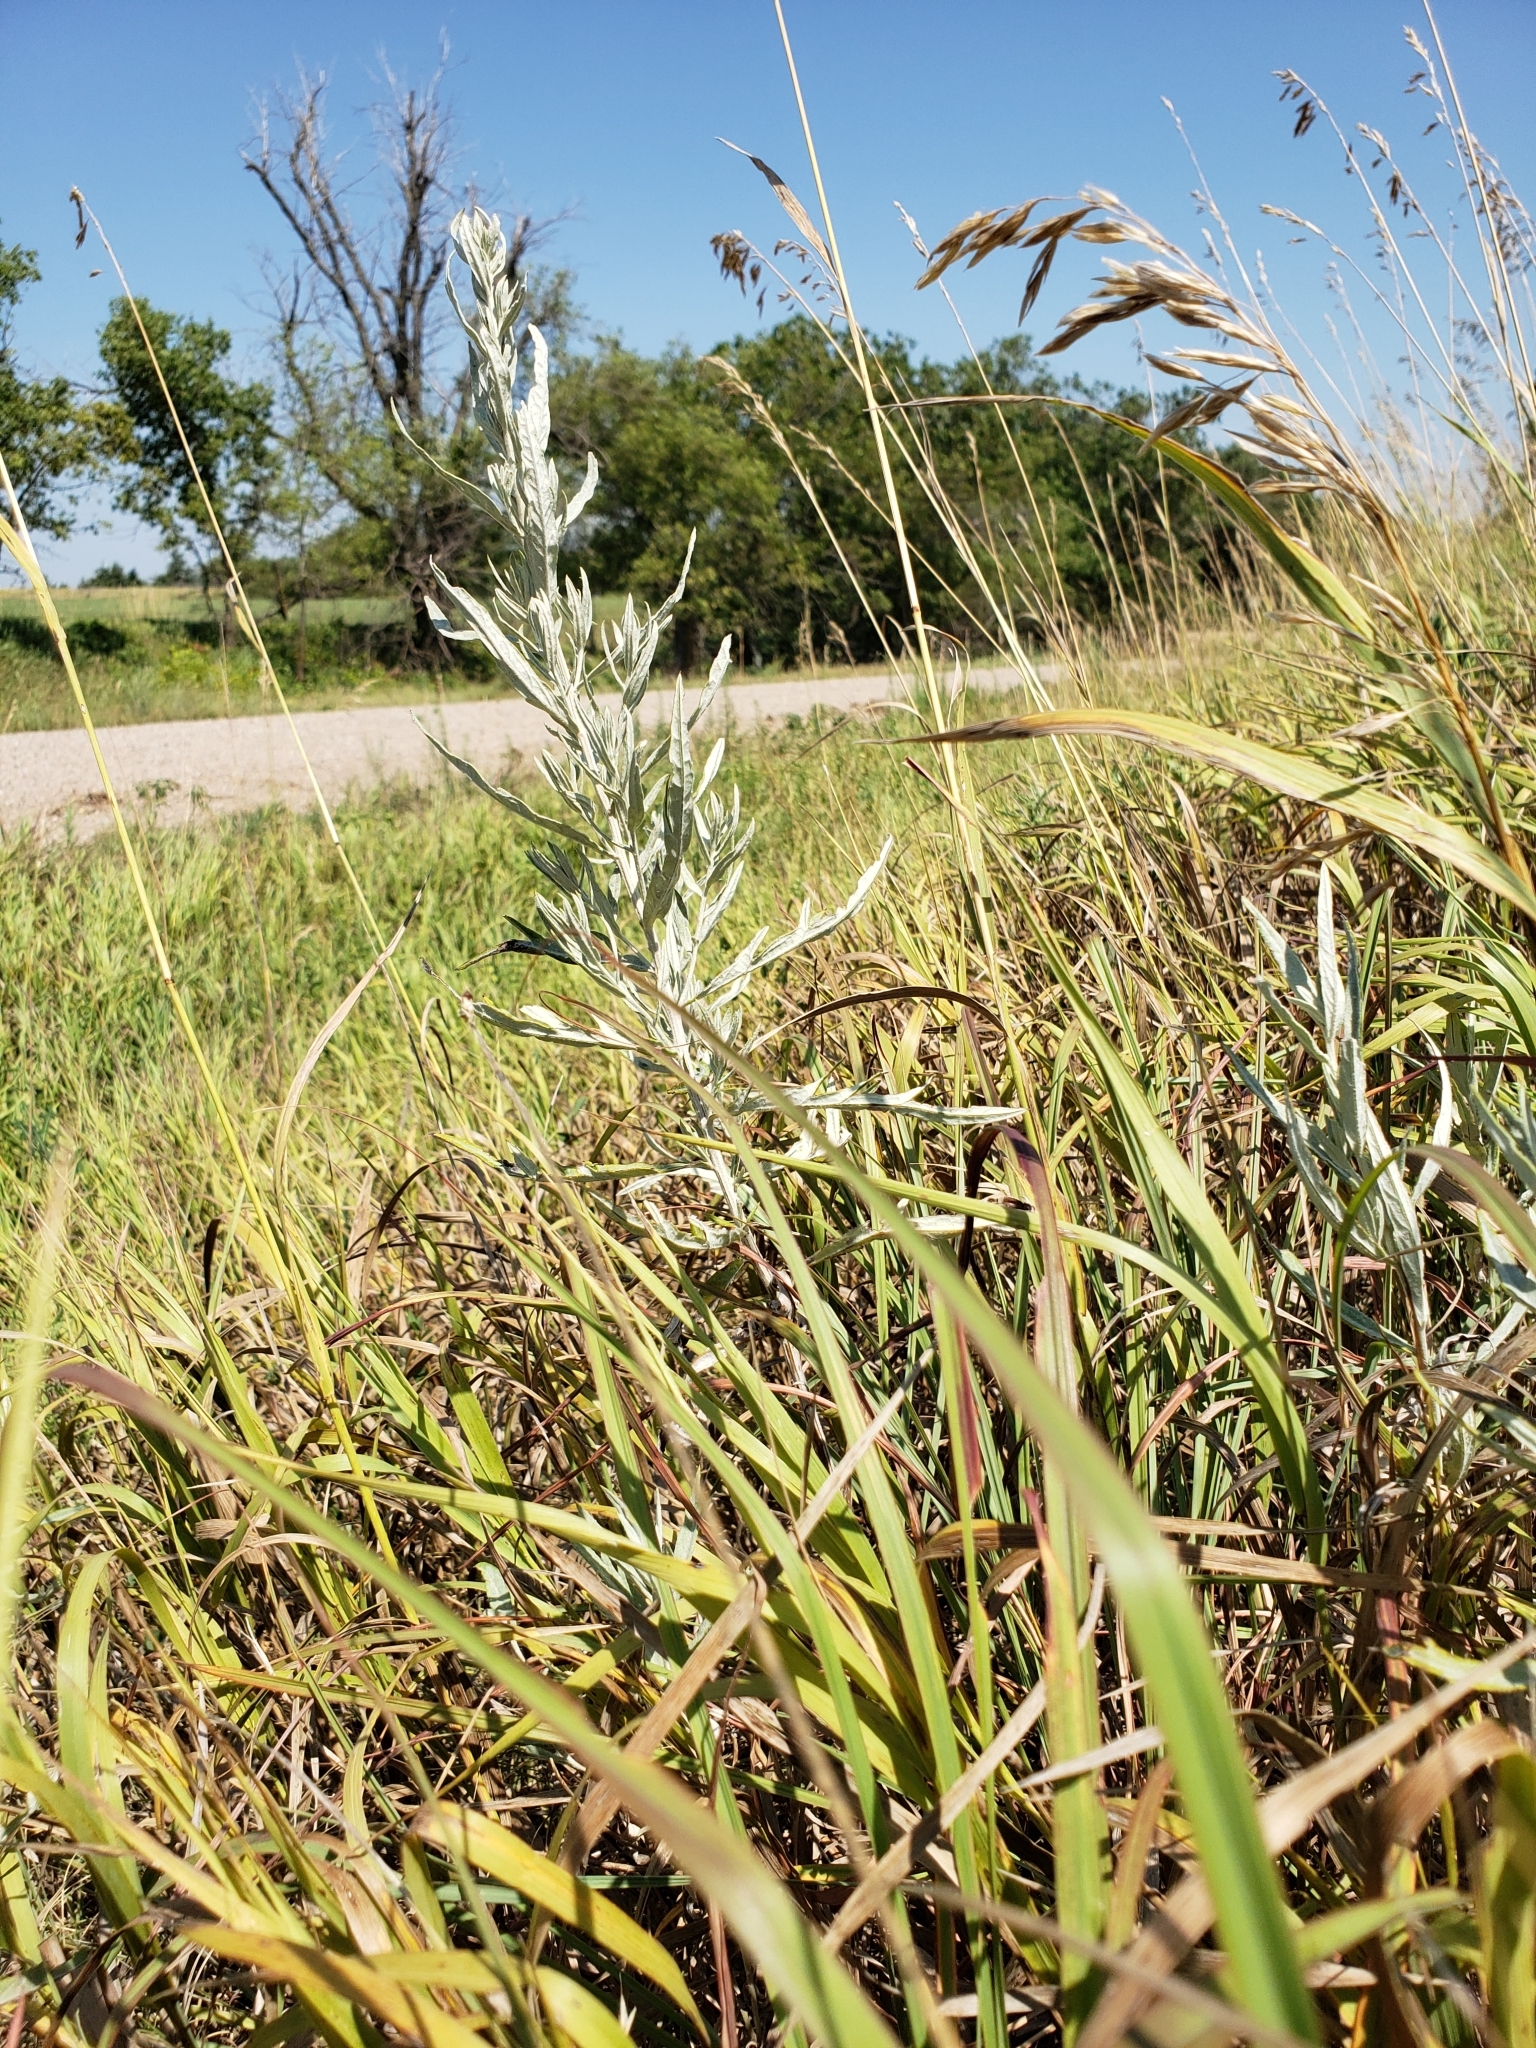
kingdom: Plantae
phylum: Tracheophyta
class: Magnoliopsida
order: Asterales
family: Asteraceae
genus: Artemisia
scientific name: Artemisia ludoviciana
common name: Western mugwort
